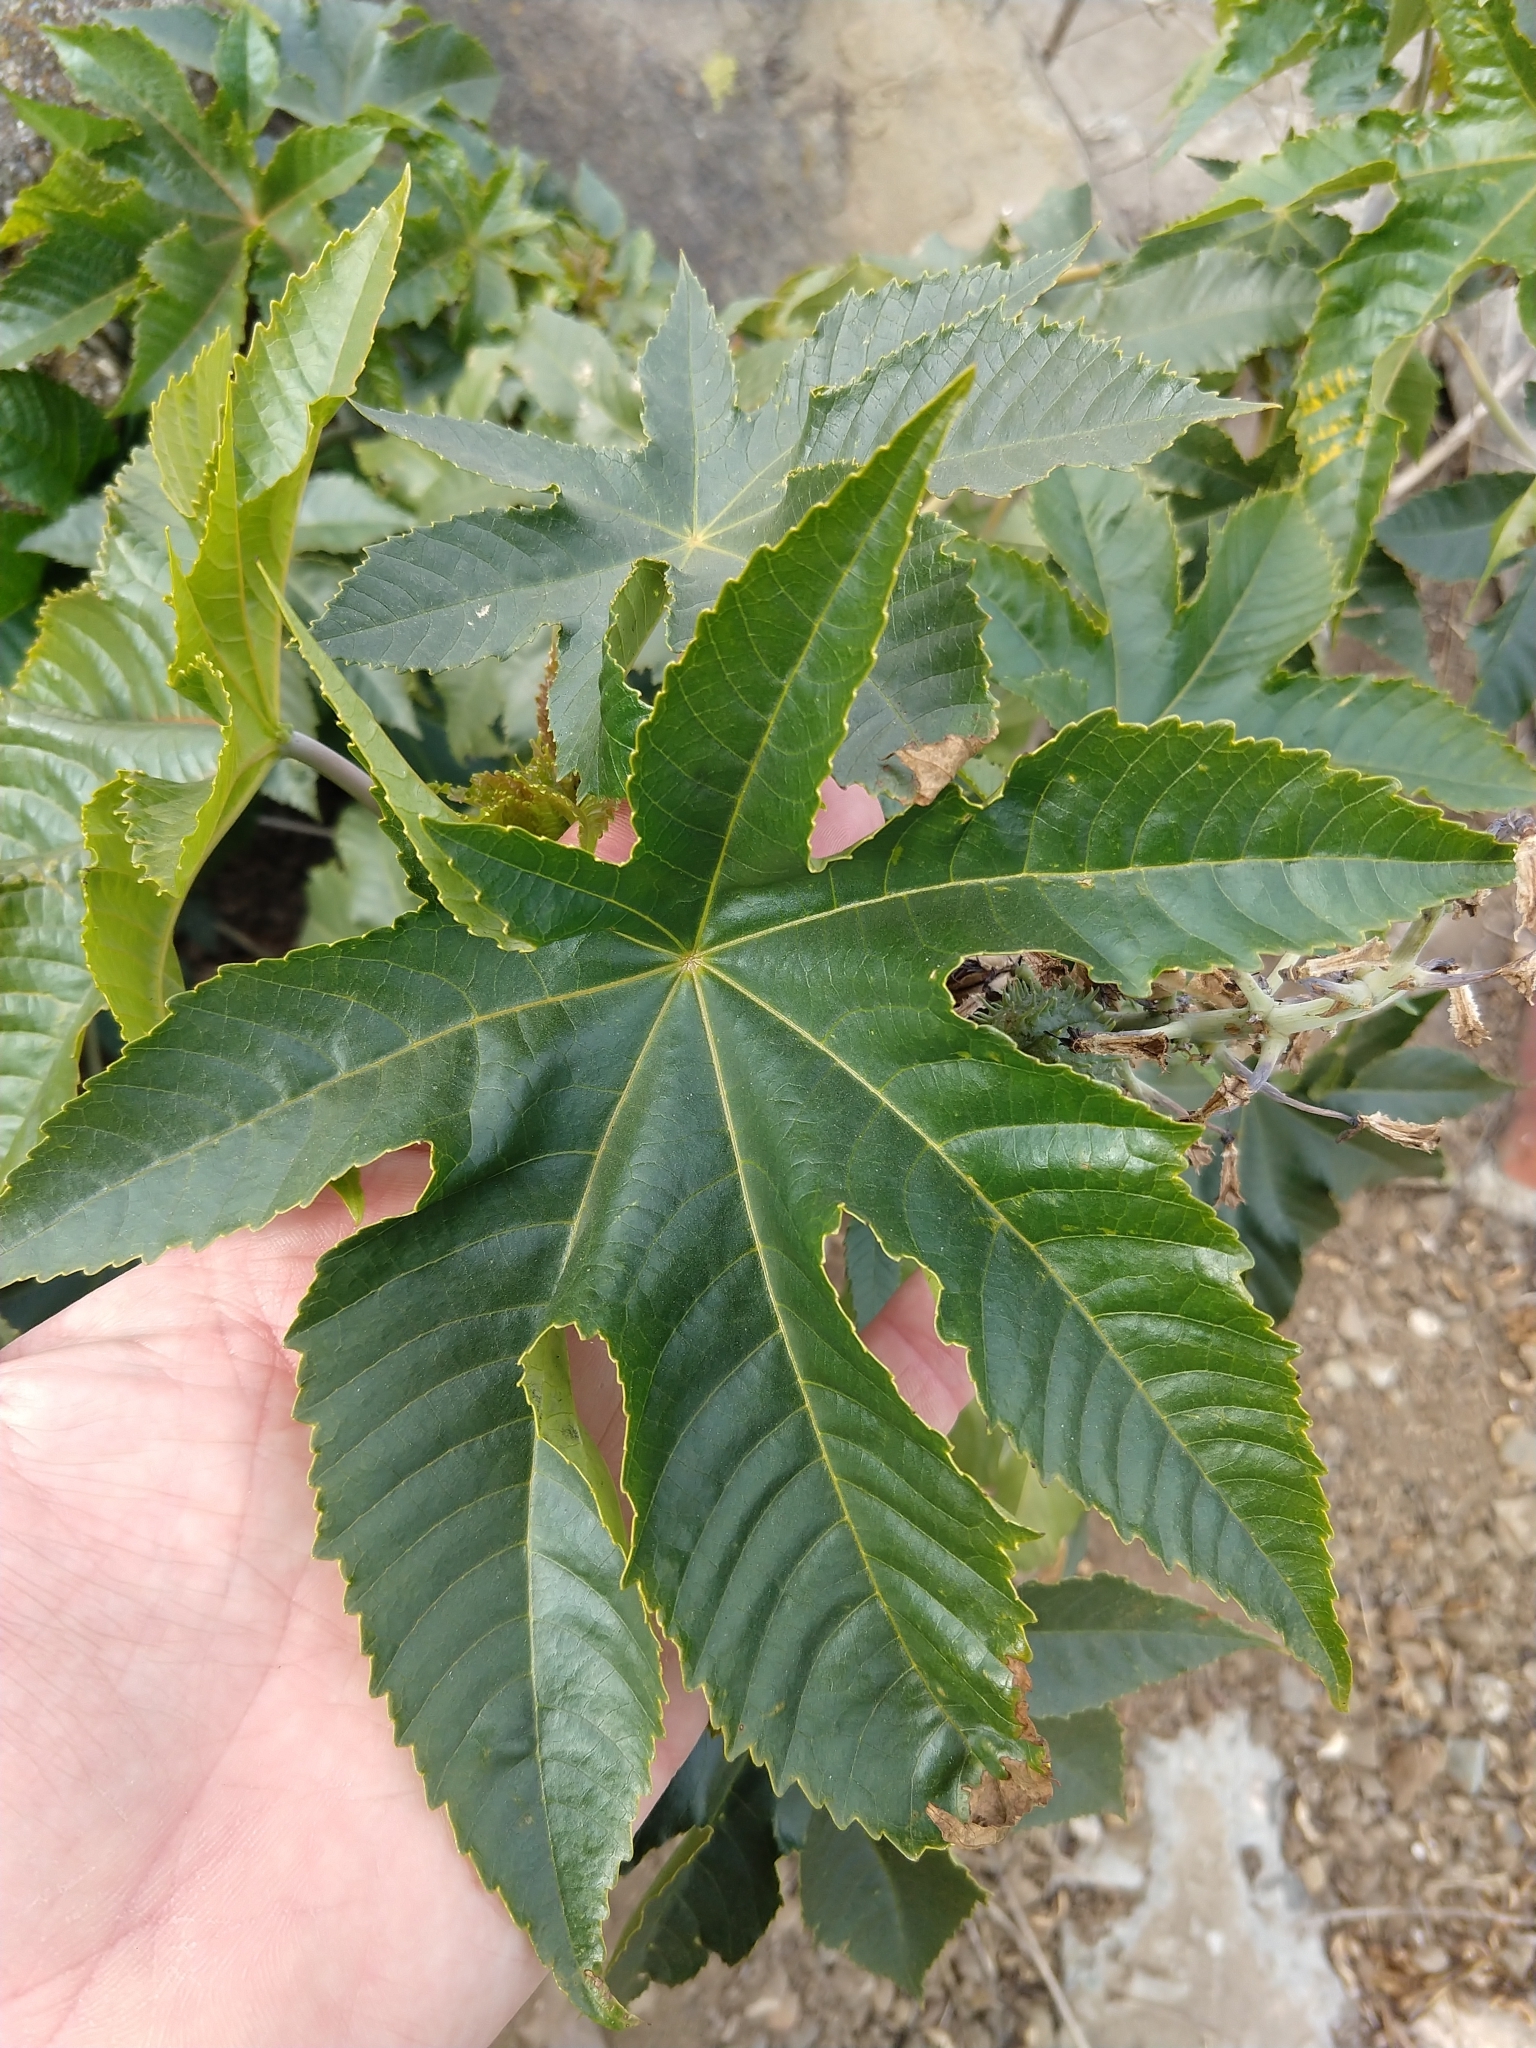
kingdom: Plantae
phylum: Tracheophyta
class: Magnoliopsida
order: Malpighiales
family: Euphorbiaceae
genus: Ricinus
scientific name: Ricinus communis
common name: Castor-oil-plant
